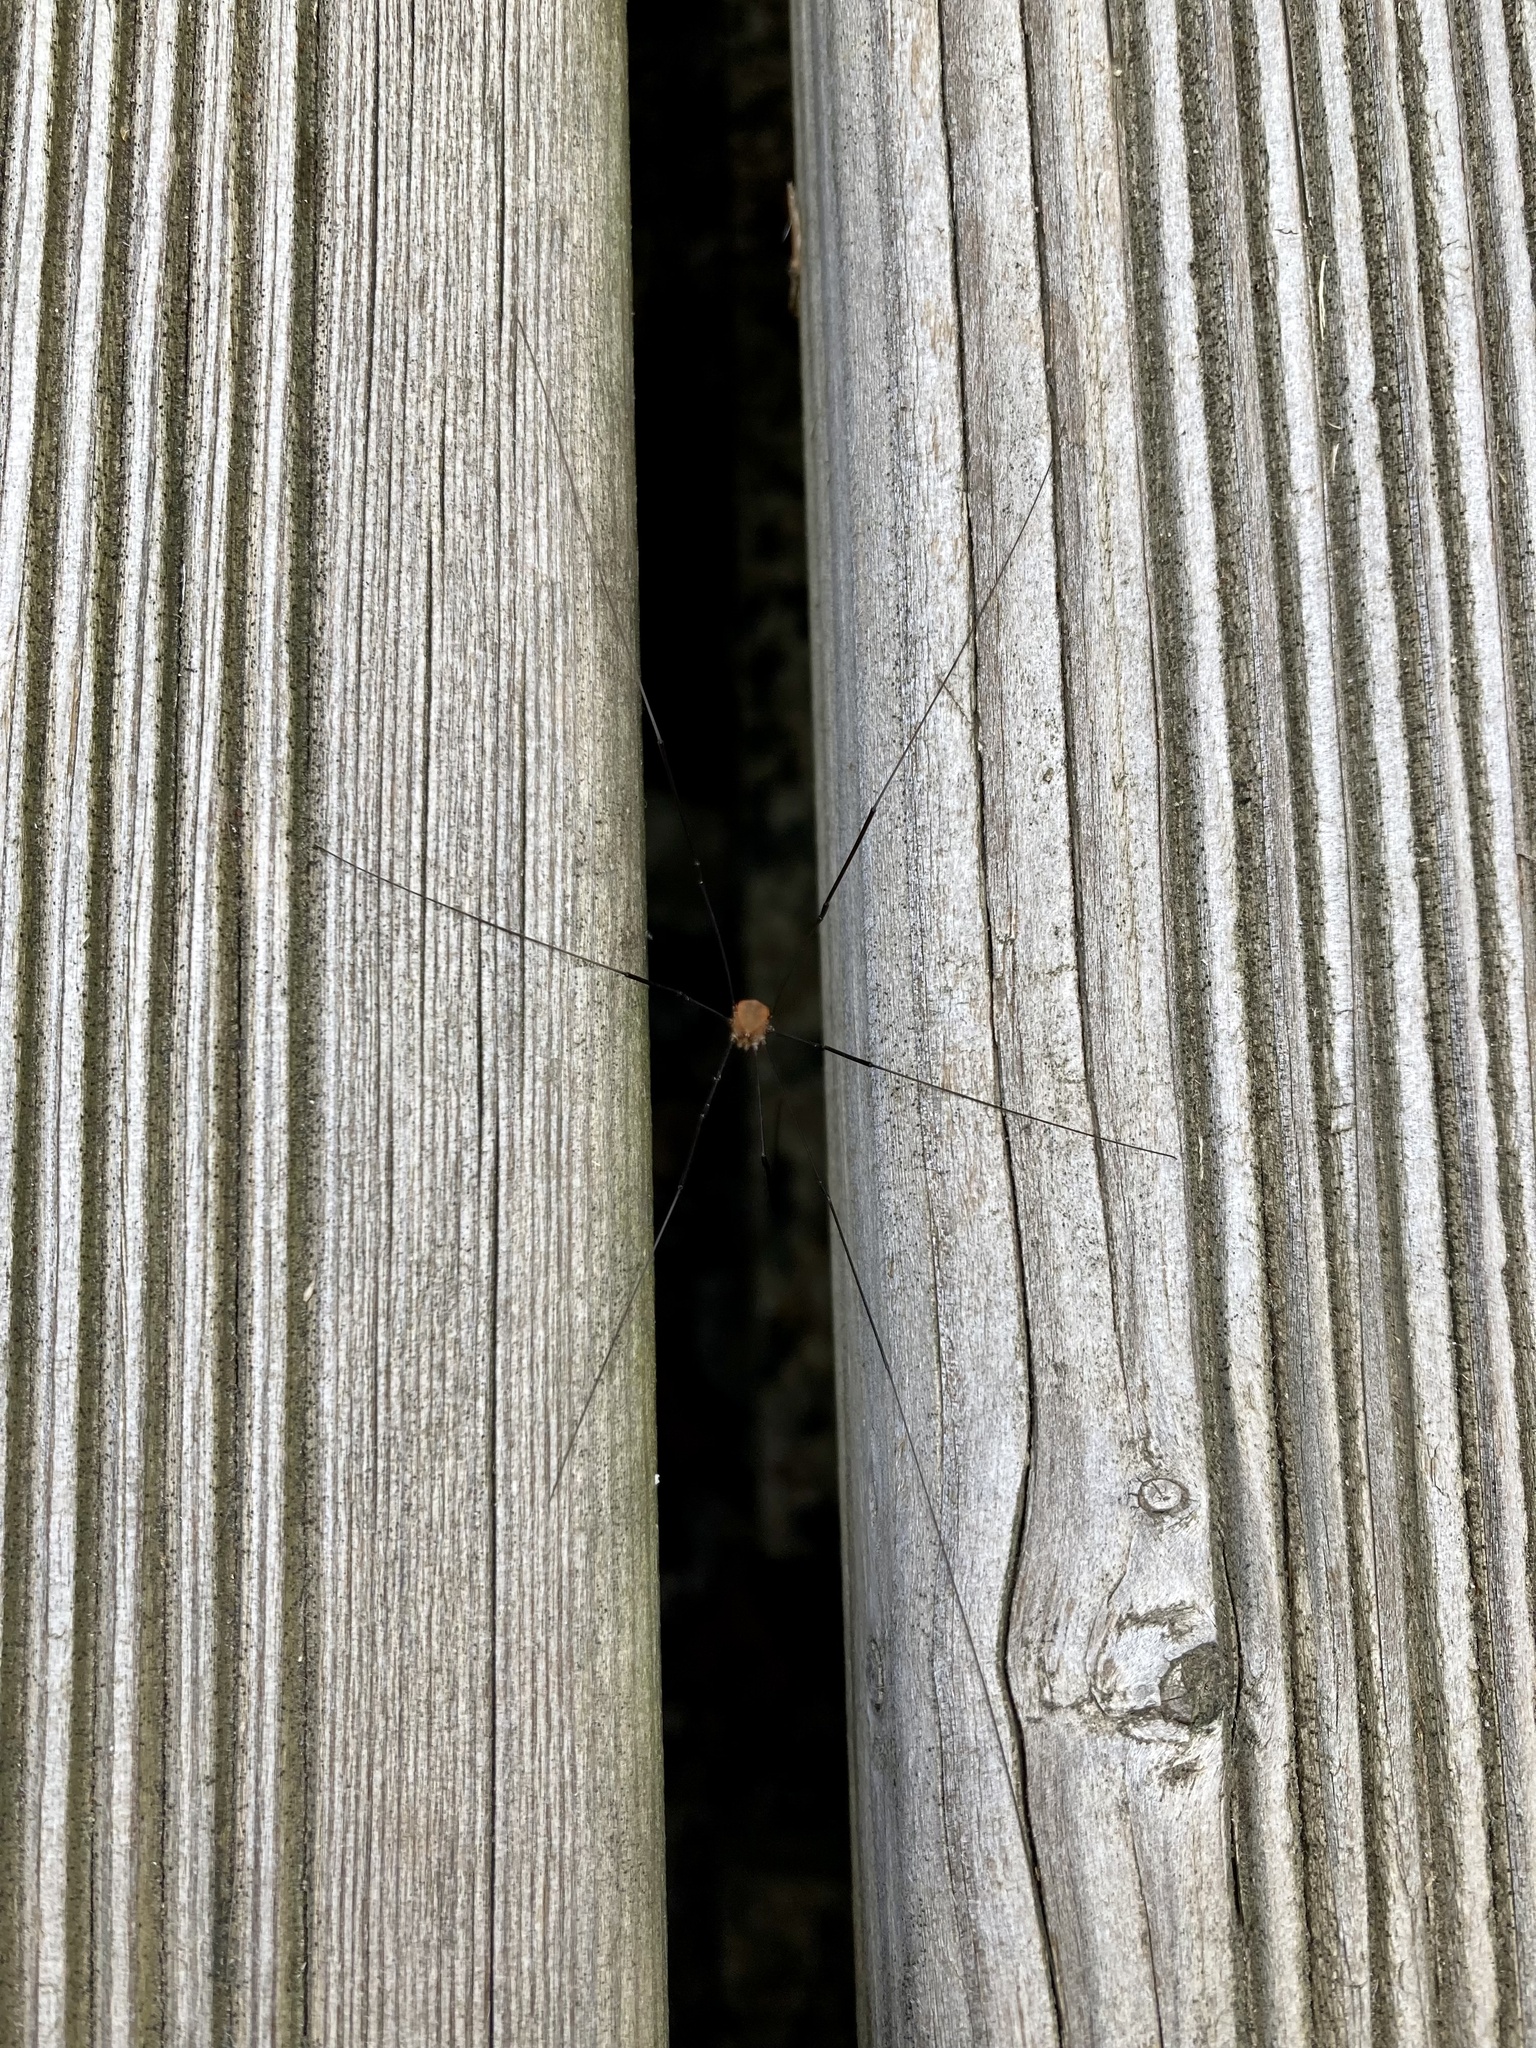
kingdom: Animalia
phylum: Arthropoda
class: Arachnida
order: Opiliones
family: Sclerosomatidae
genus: Leiobunum
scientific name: Leiobunum blackwalli
